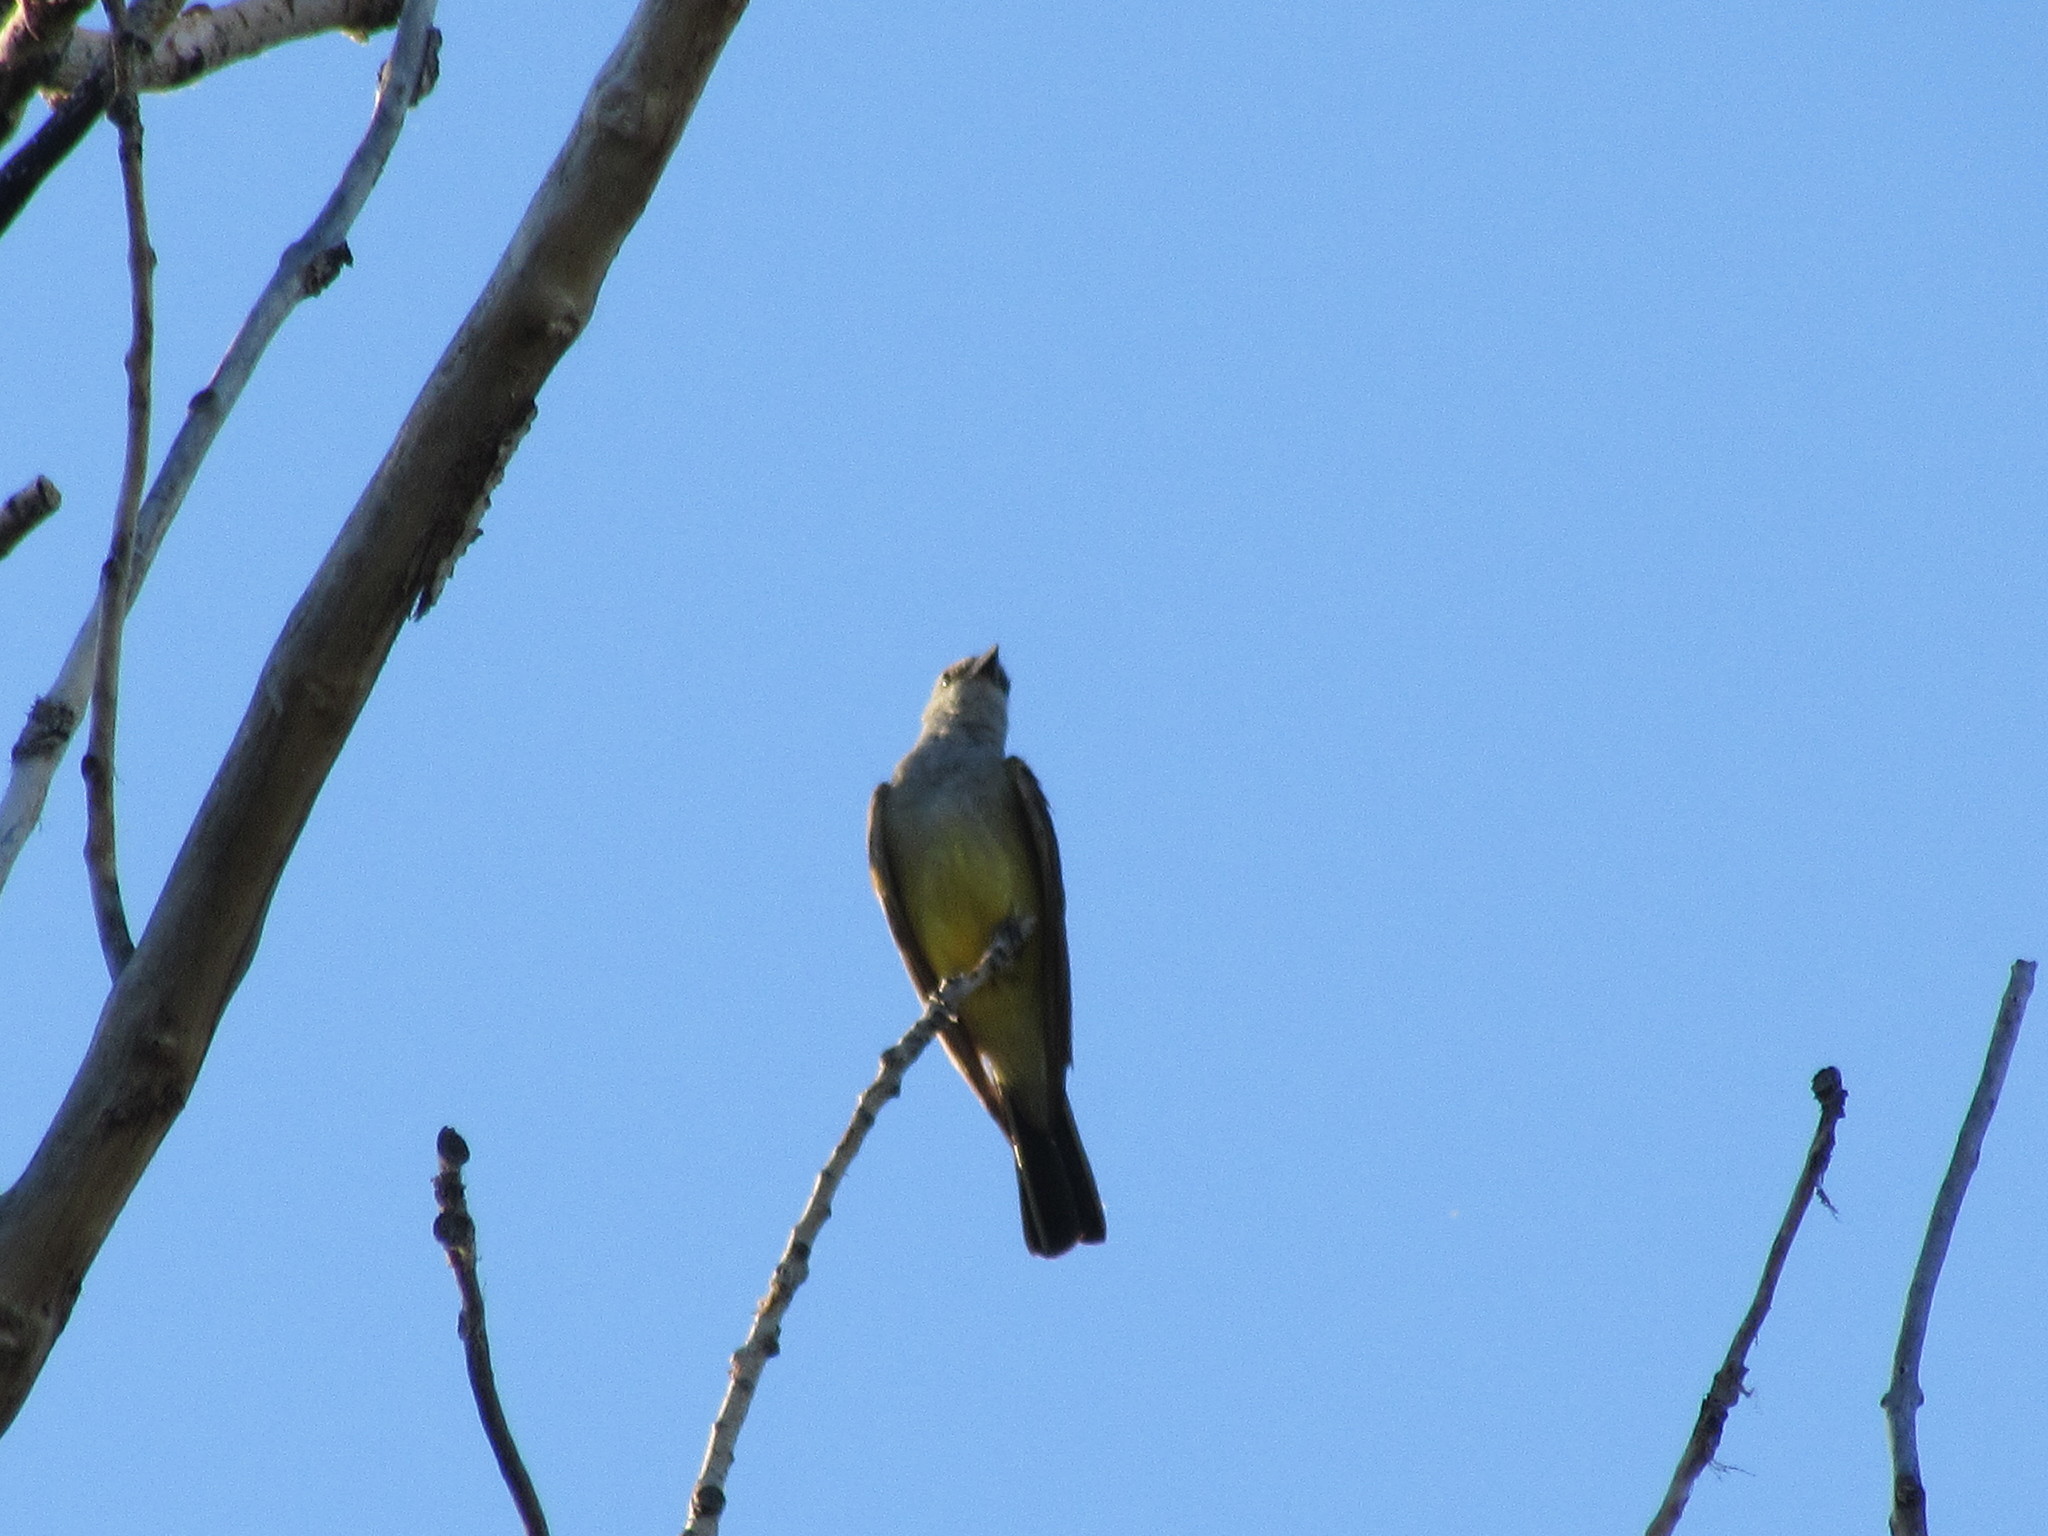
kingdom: Animalia
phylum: Chordata
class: Aves
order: Passeriformes
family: Tyrannidae
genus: Tyrannus
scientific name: Tyrannus verticalis
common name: Western kingbird
